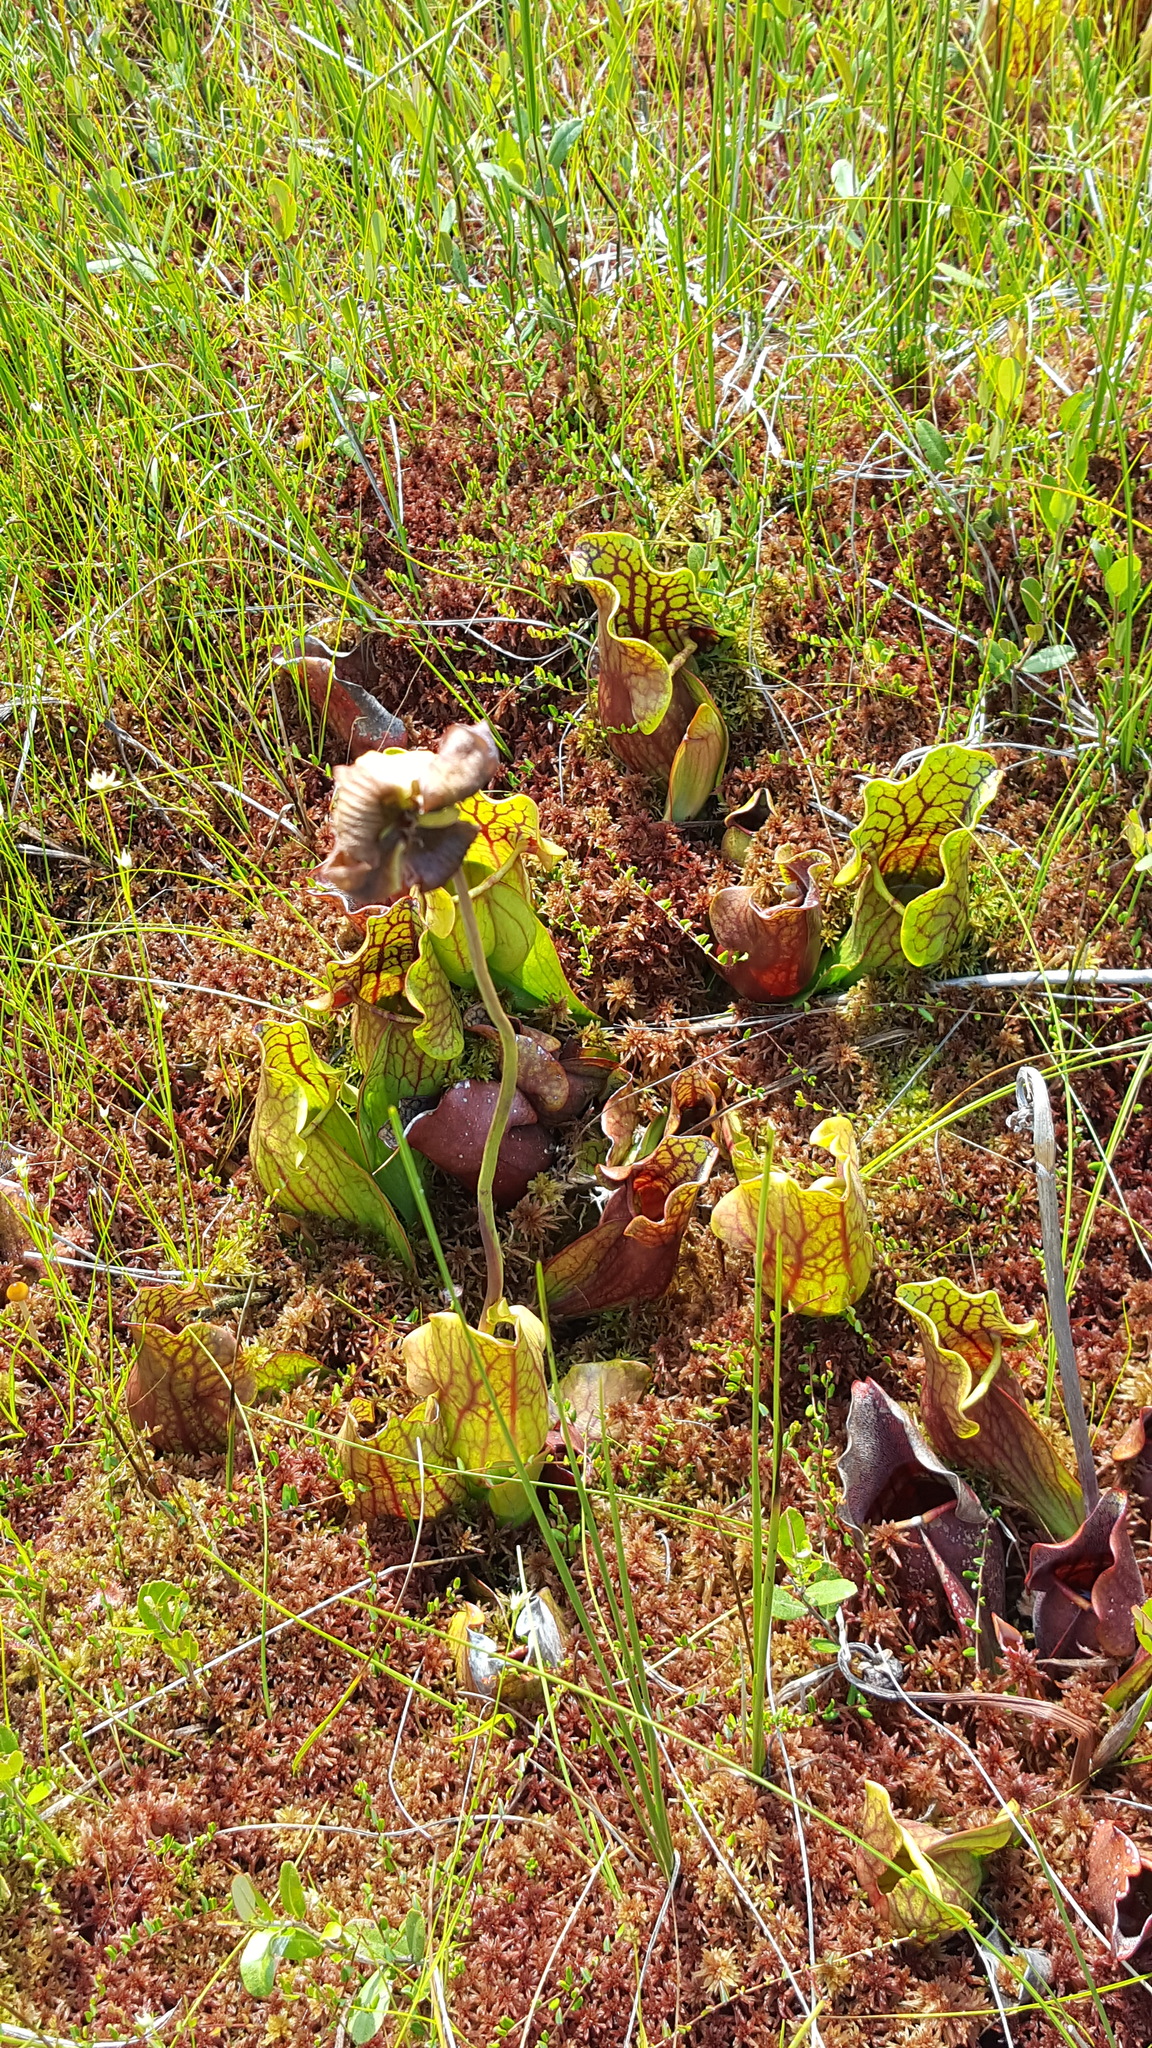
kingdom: Plantae
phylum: Tracheophyta
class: Magnoliopsida
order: Ericales
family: Sarraceniaceae
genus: Sarracenia
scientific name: Sarracenia purpurea
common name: Pitcherplant
